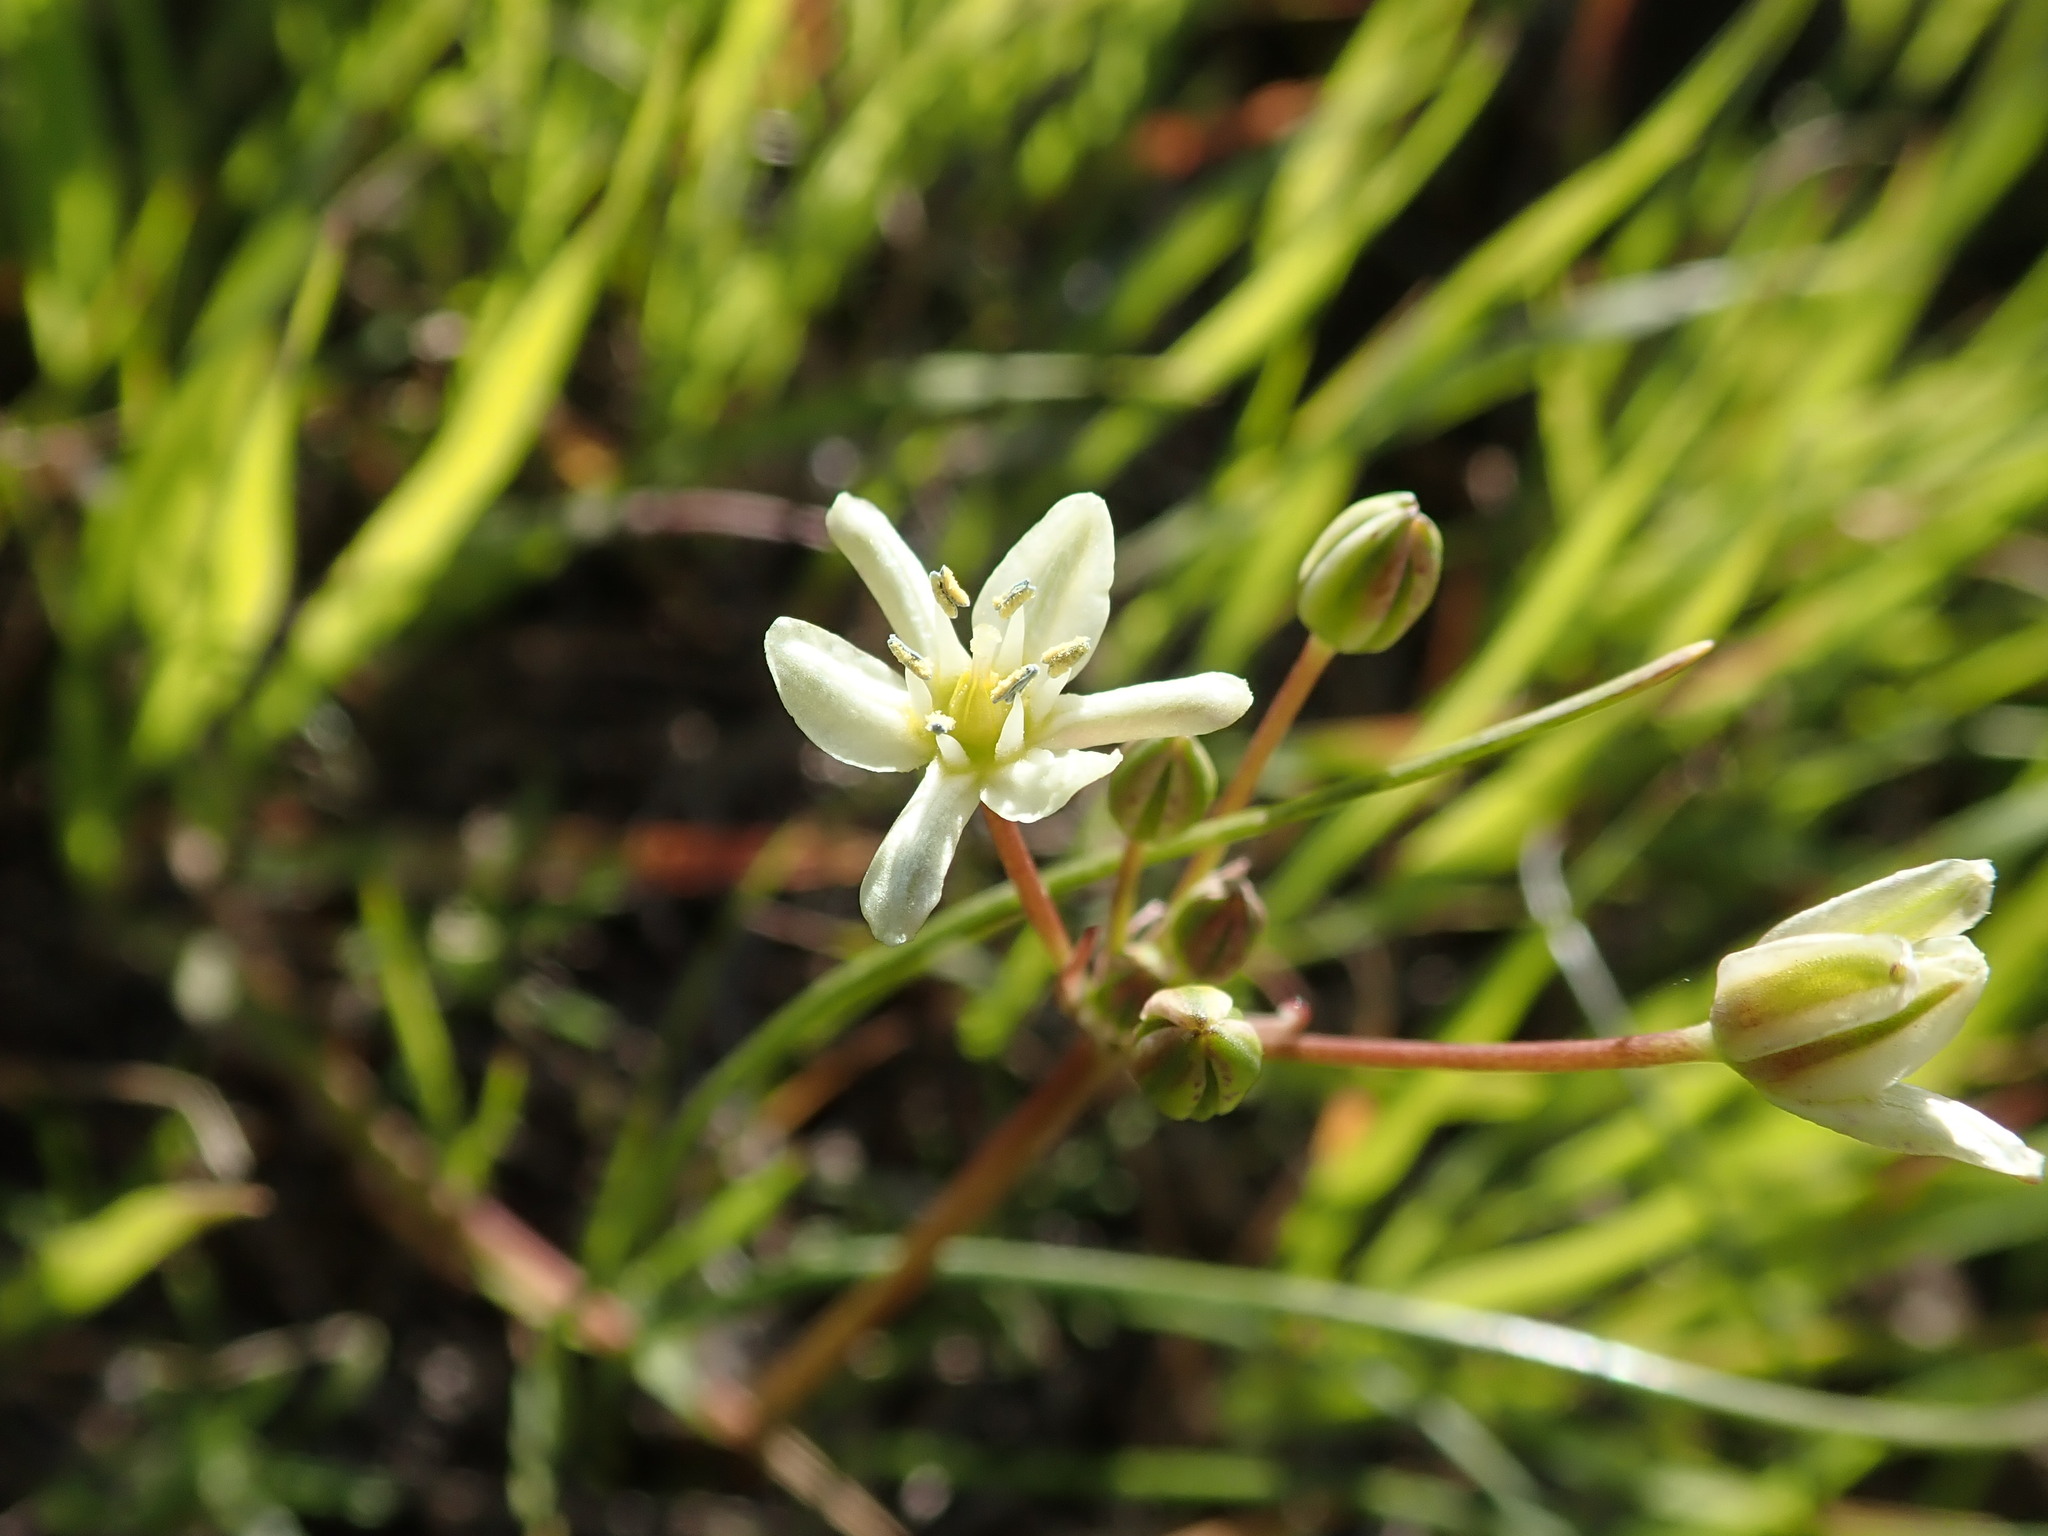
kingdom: Plantae
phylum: Tracheophyta
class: Liliopsida
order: Asparagales
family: Asparagaceae
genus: Muilla
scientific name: Muilla maritima
